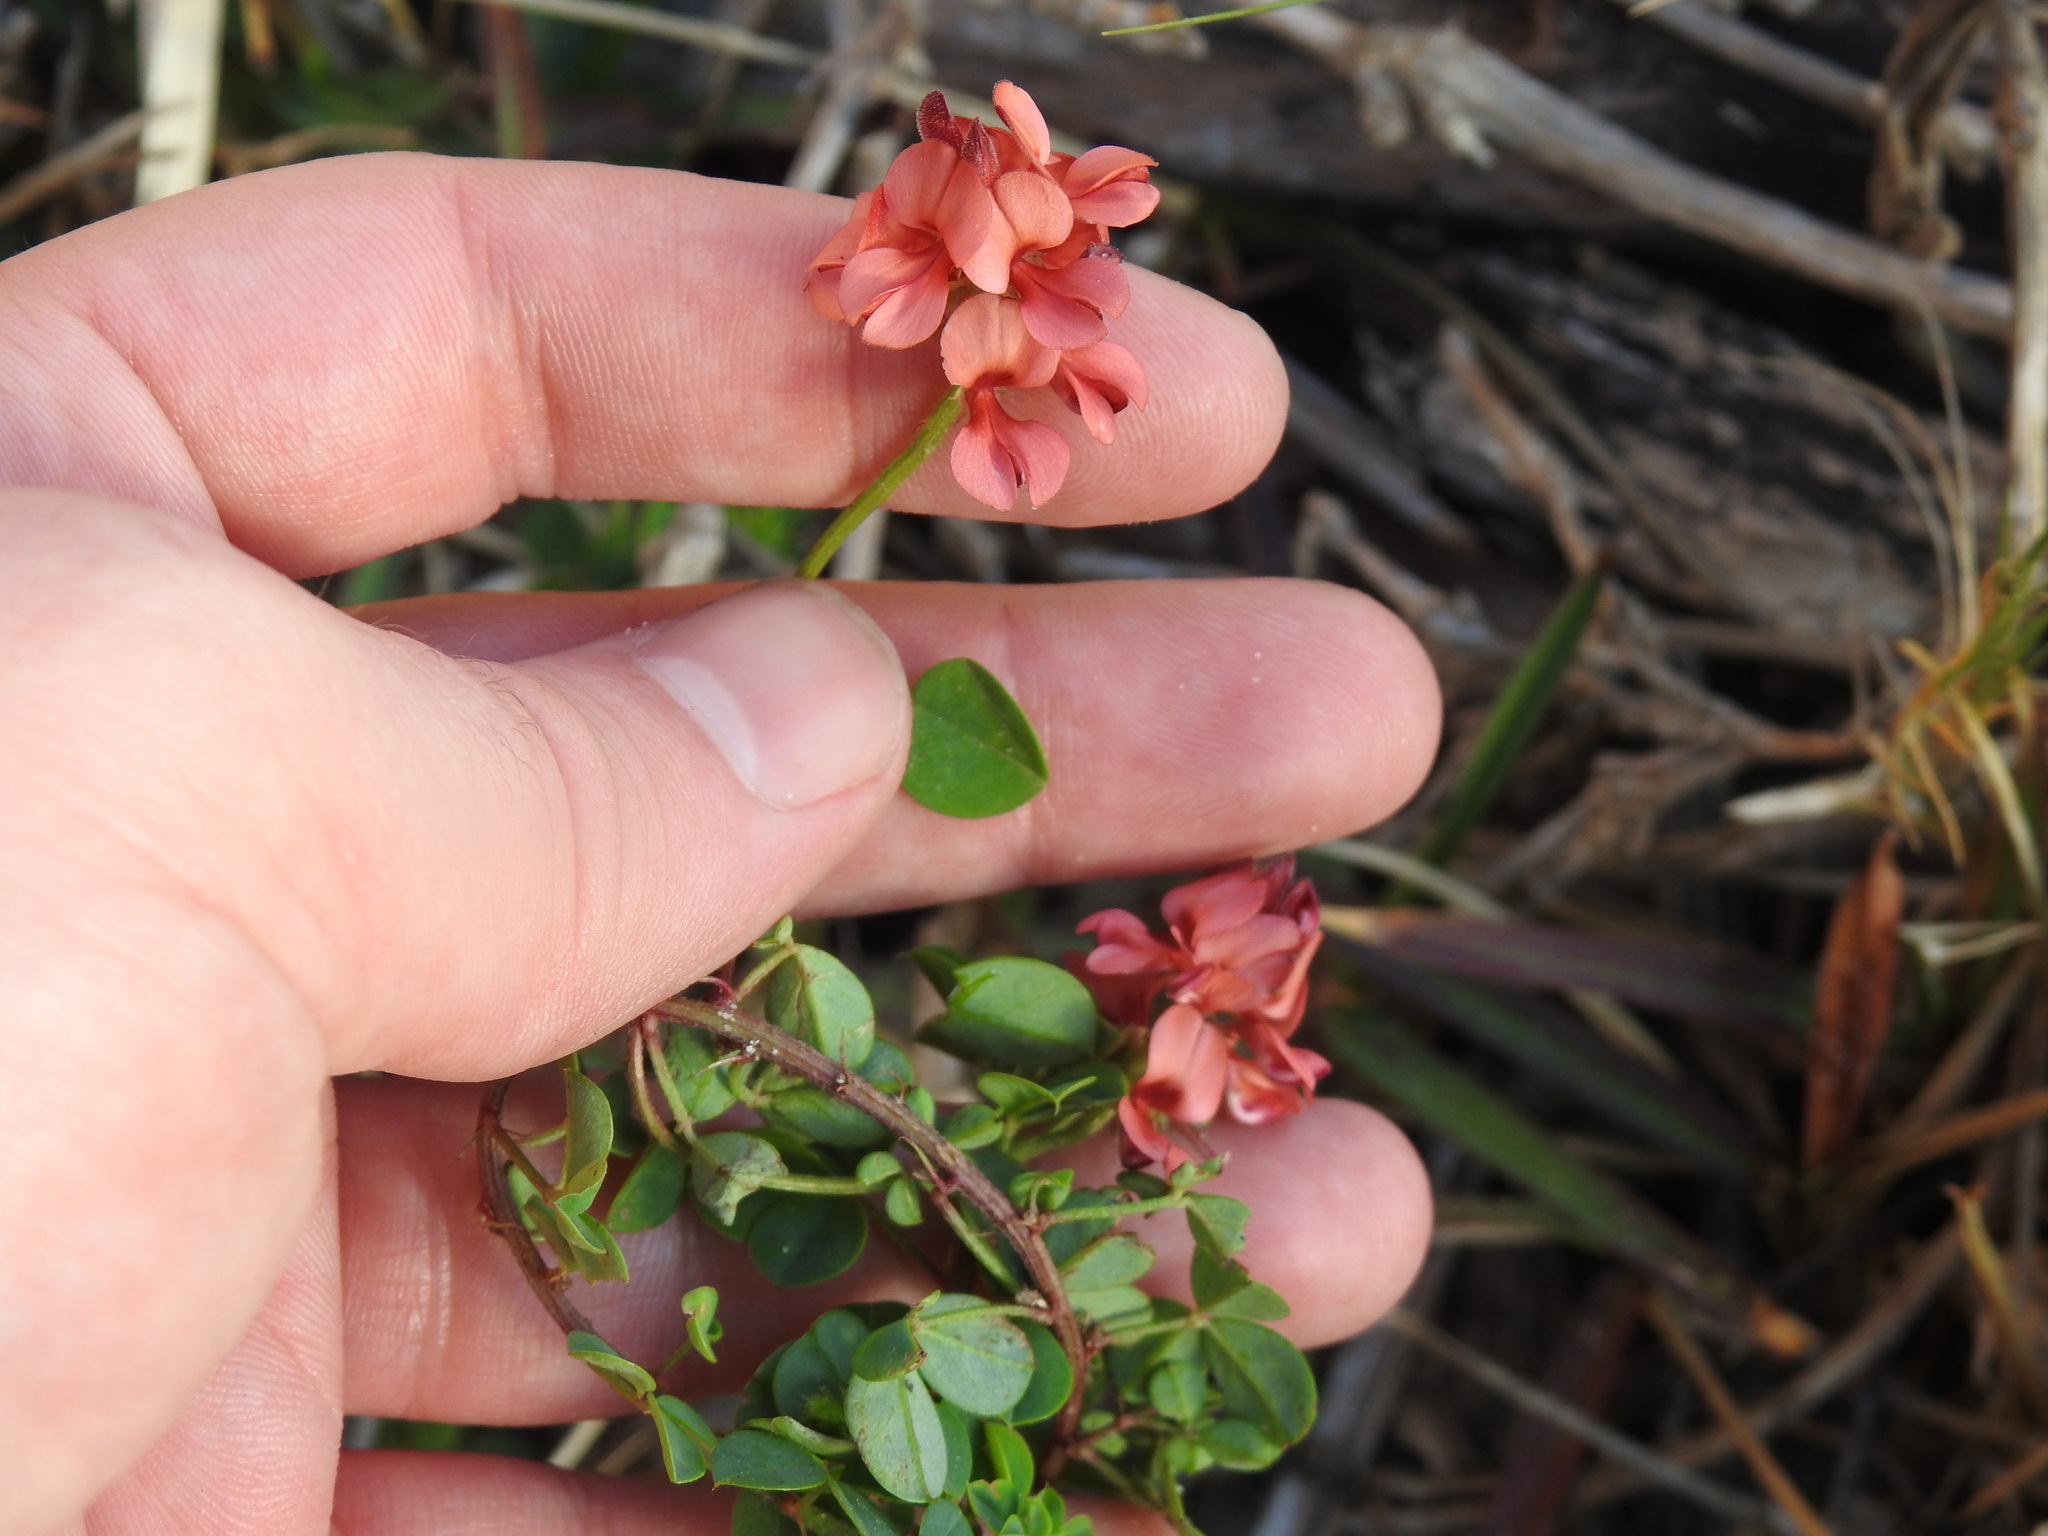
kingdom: Plantae
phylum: Tracheophyta
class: Magnoliopsida
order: Fabales
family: Fabaceae
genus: Indigofera
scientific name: Indigofera erecta
